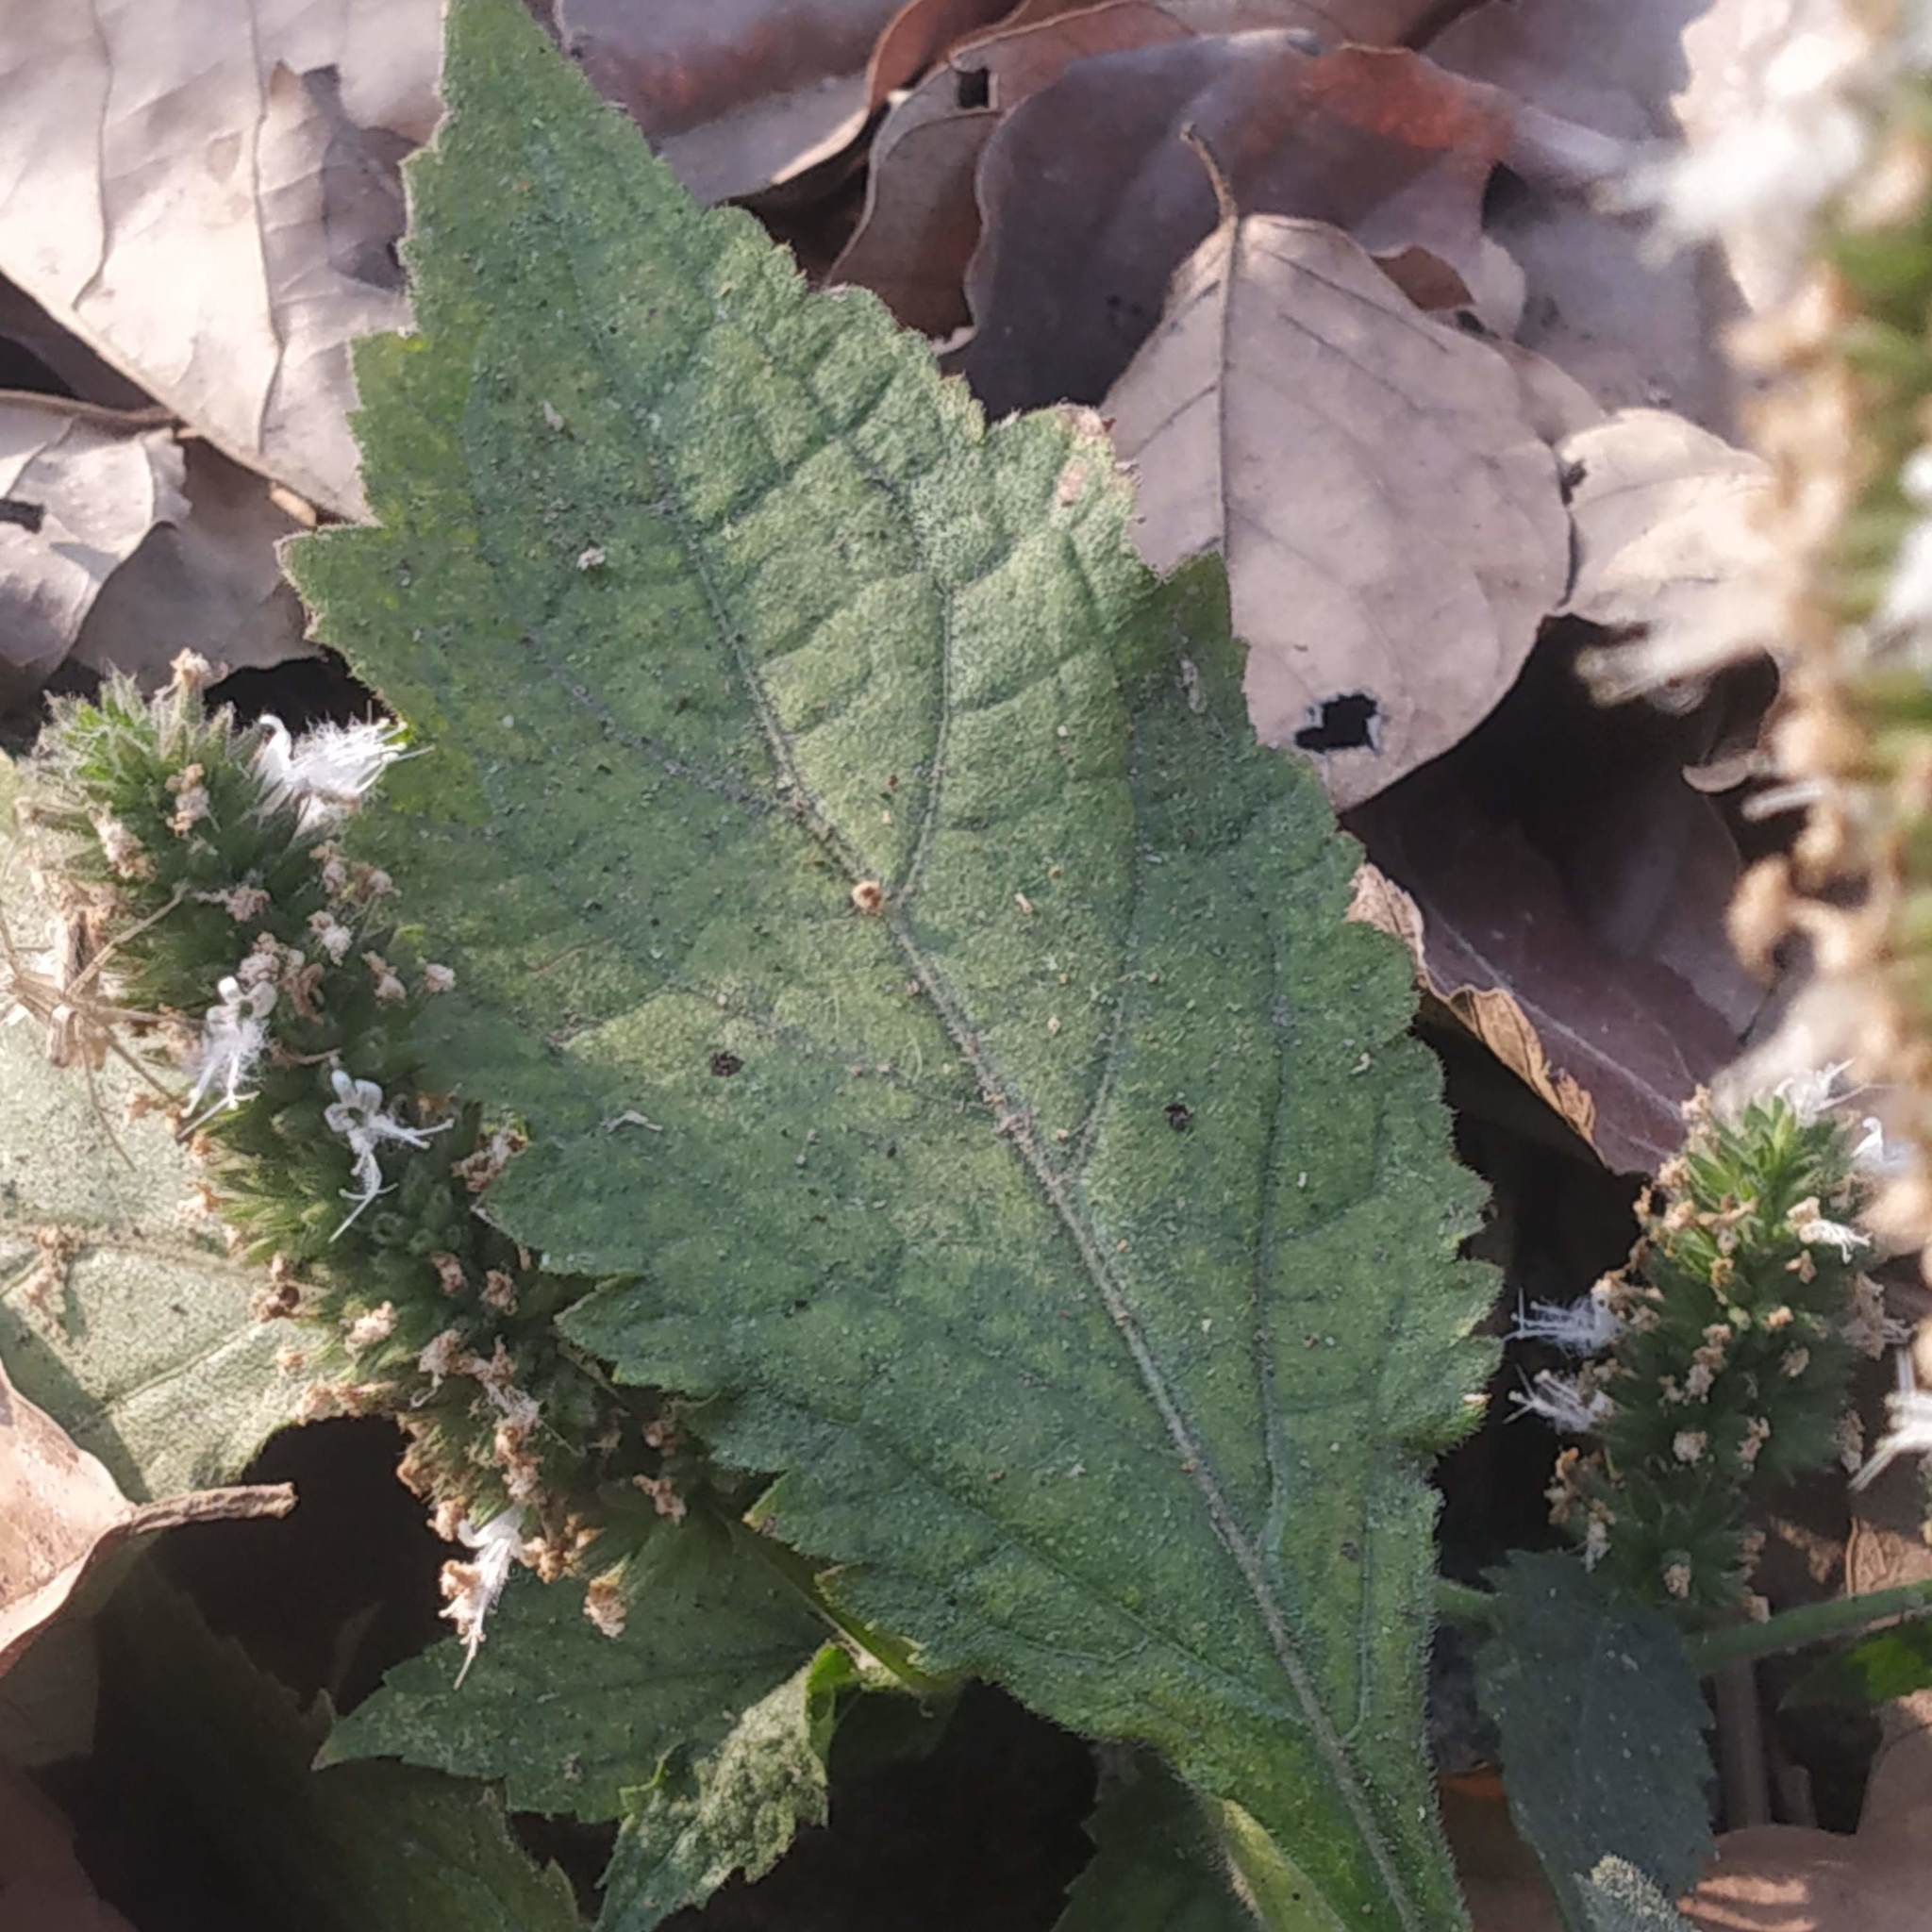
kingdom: Plantae
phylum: Tracheophyta
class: Magnoliopsida
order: Lamiales
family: Lamiaceae
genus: Pogostemon
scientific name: Pogostemon purpurascens
